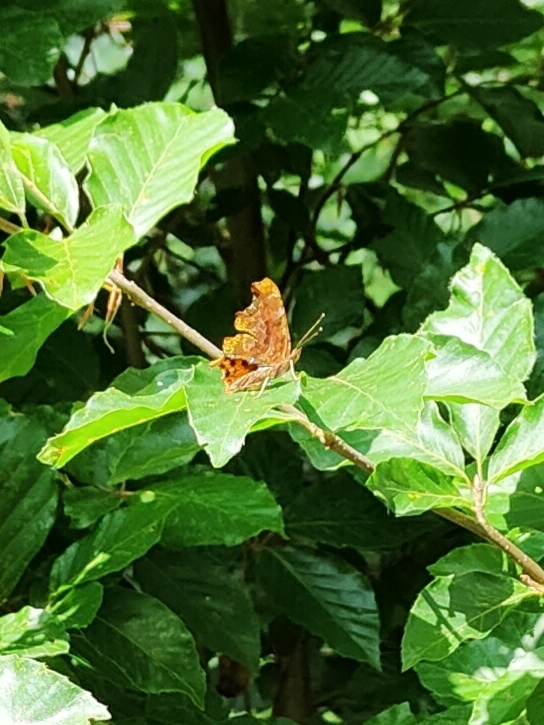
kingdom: Animalia
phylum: Arthropoda
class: Insecta
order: Lepidoptera
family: Nymphalidae
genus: Polygonia
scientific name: Polygonia c-album
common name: Comma
